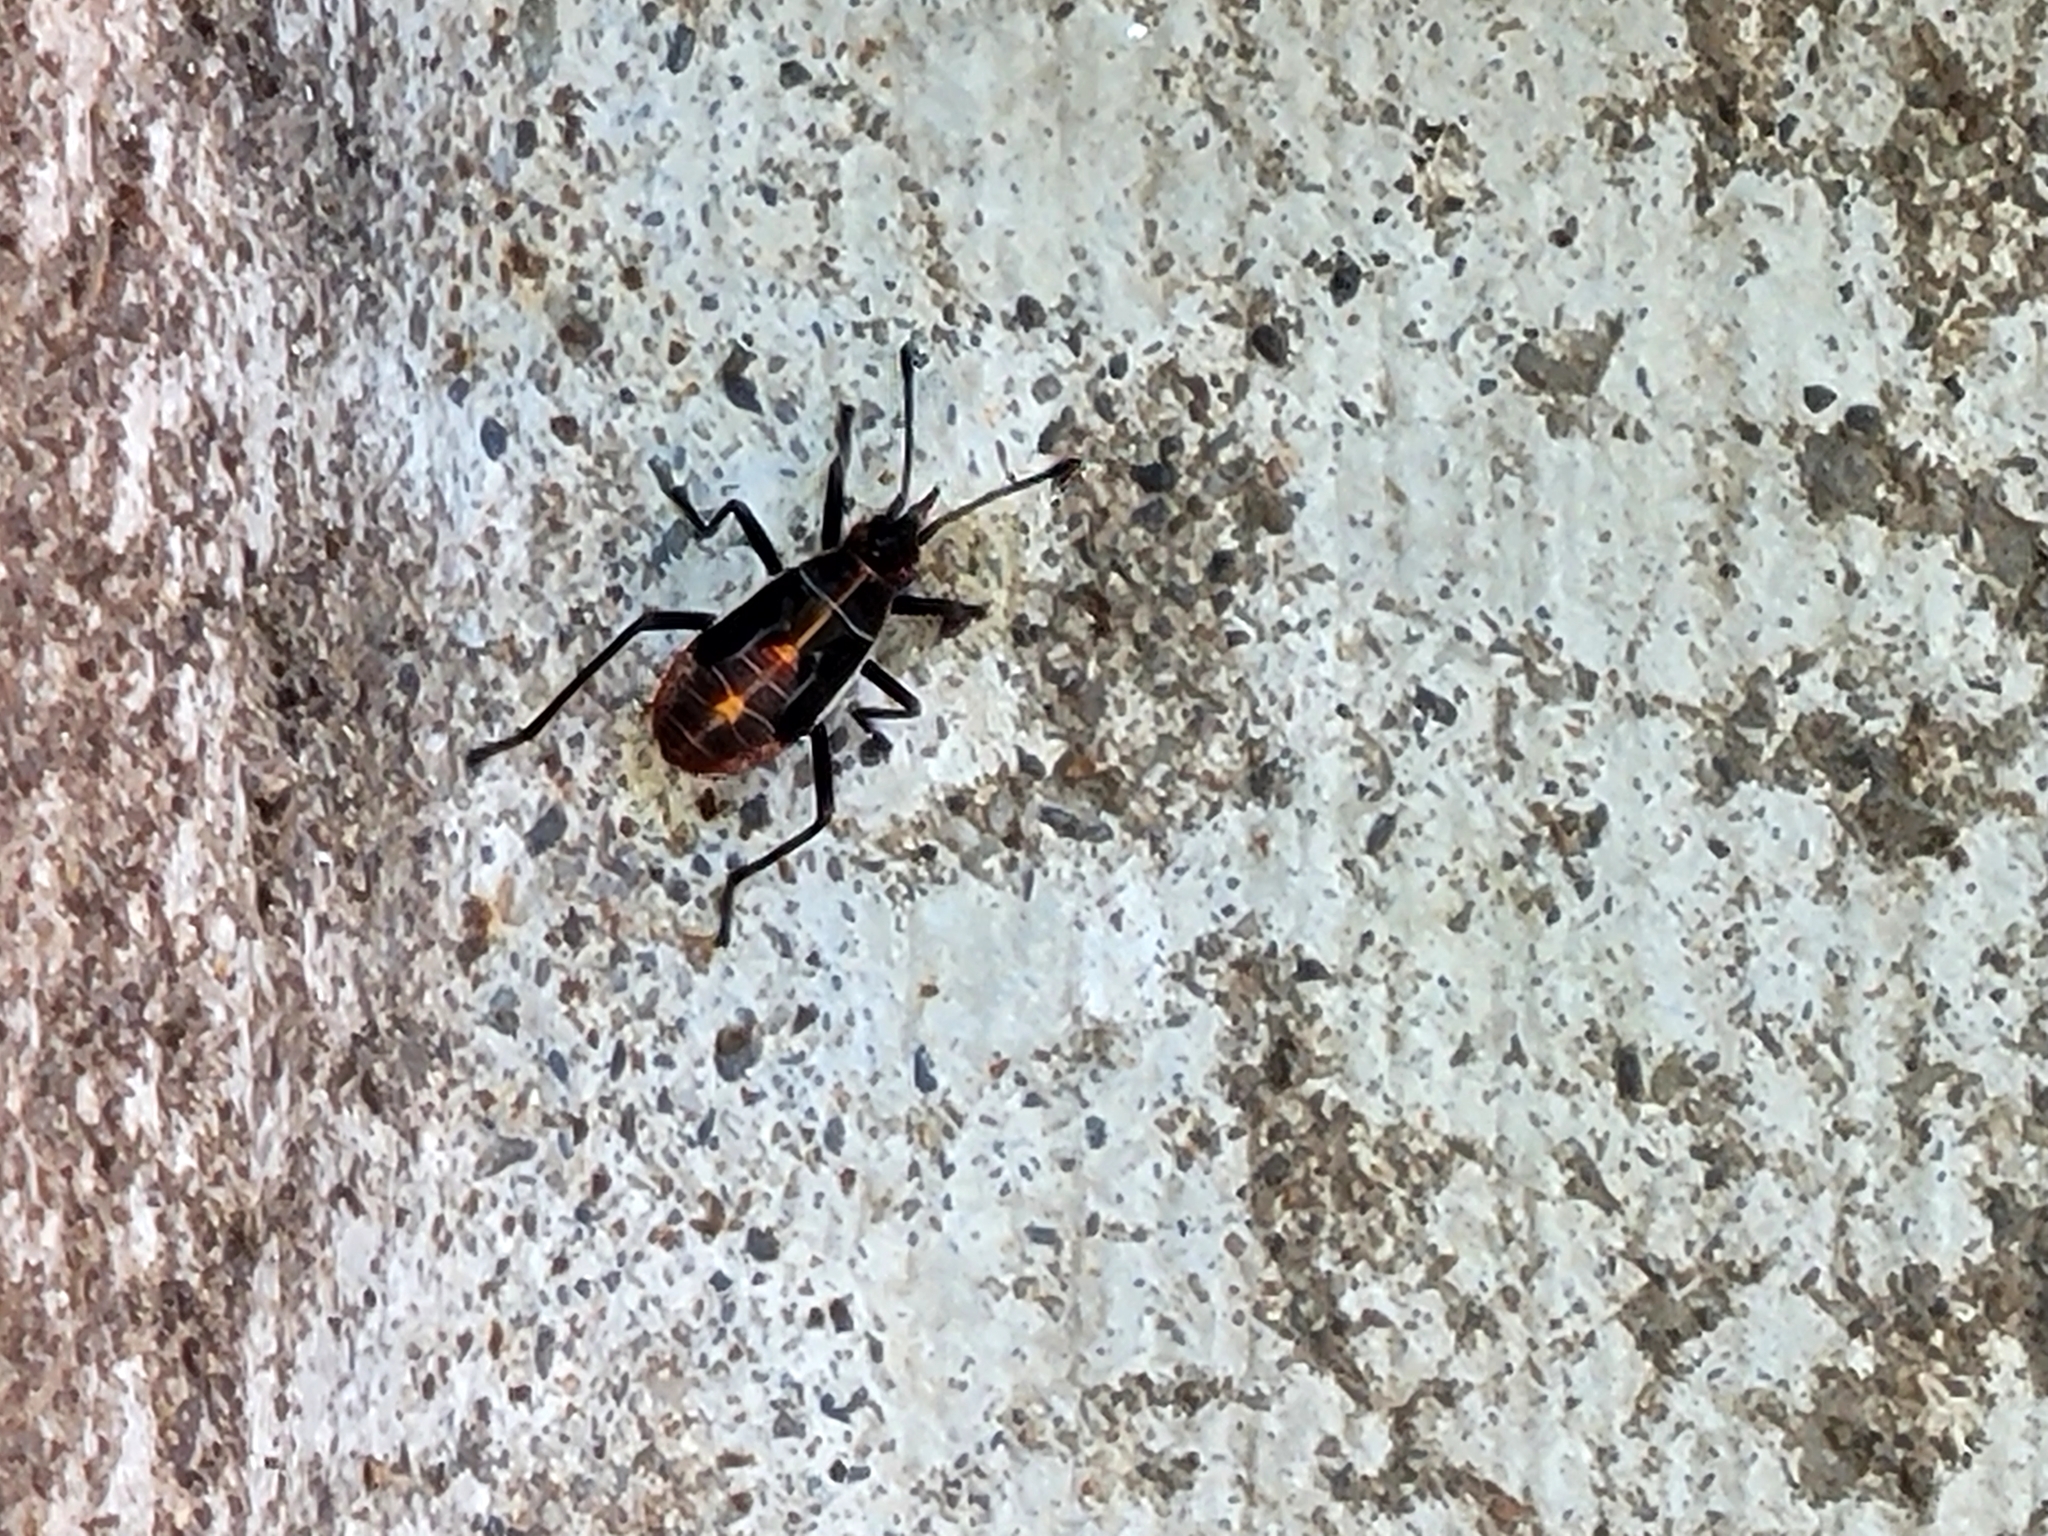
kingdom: Animalia
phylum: Arthropoda
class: Insecta
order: Hemiptera
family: Rhopalidae
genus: Boisea
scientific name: Boisea rubrolineata
